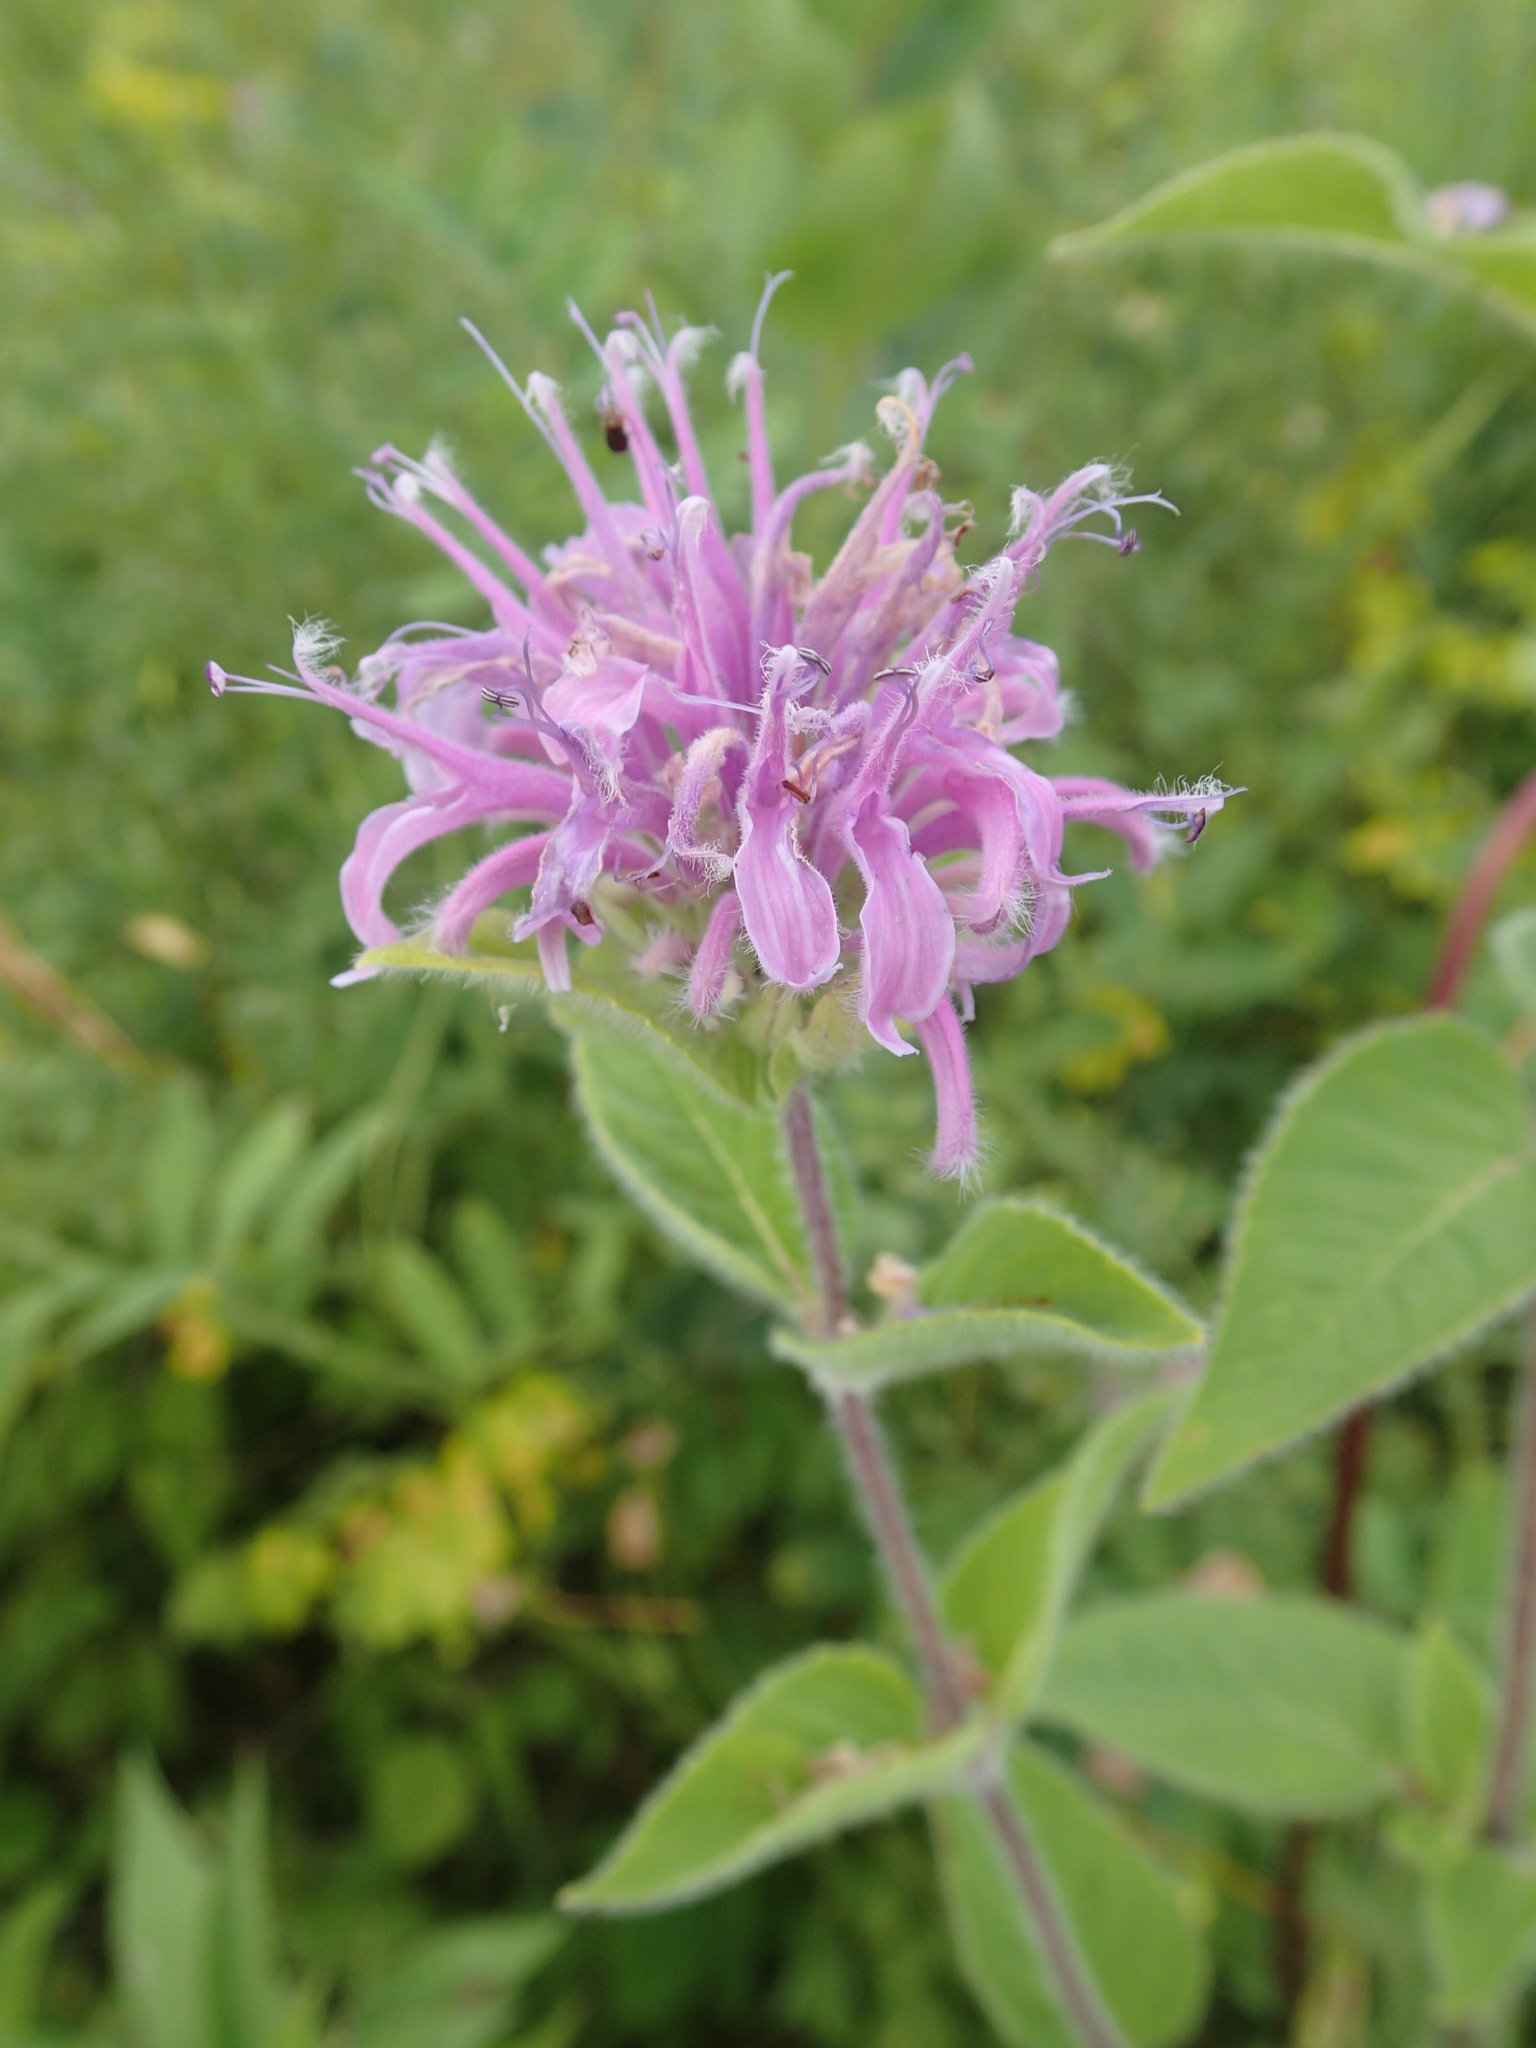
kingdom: Plantae
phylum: Tracheophyta
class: Magnoliopsida
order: Lamiales
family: Lamiaceae
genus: Monarda
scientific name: Monarda fistulosa
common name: Purple beebalm
